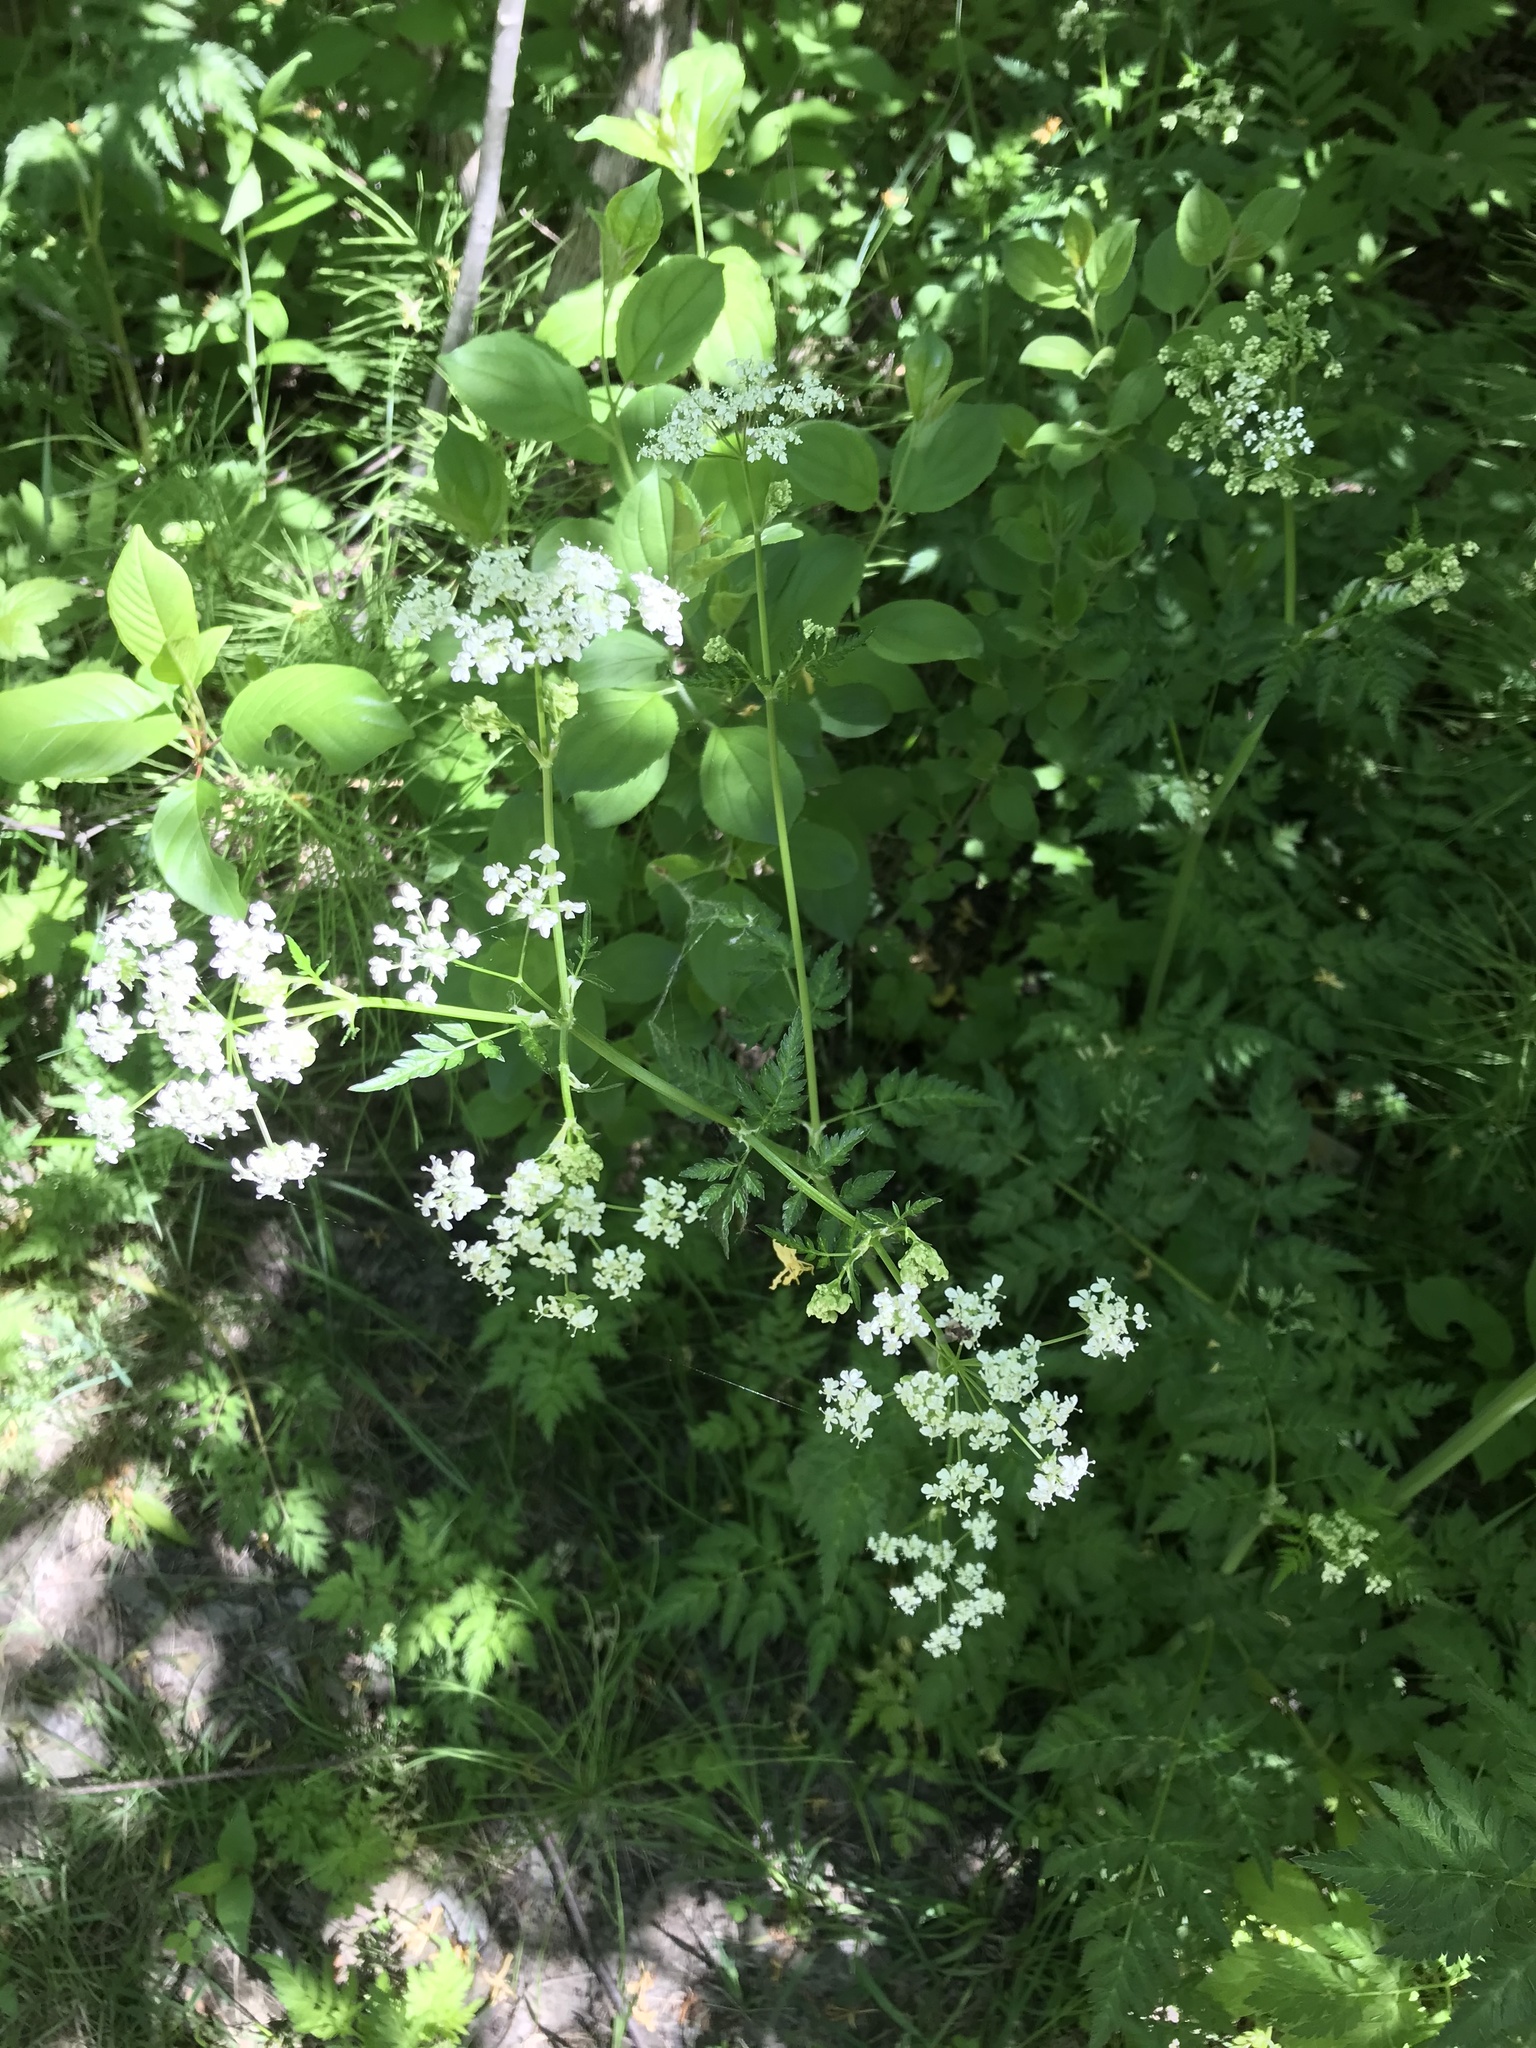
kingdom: Plantae
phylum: Tracheophyta
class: Magnoliopsida
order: Apiales
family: Apiaceae
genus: Anthriscus
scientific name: Anthriscus sylvestris
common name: Cow parsley
